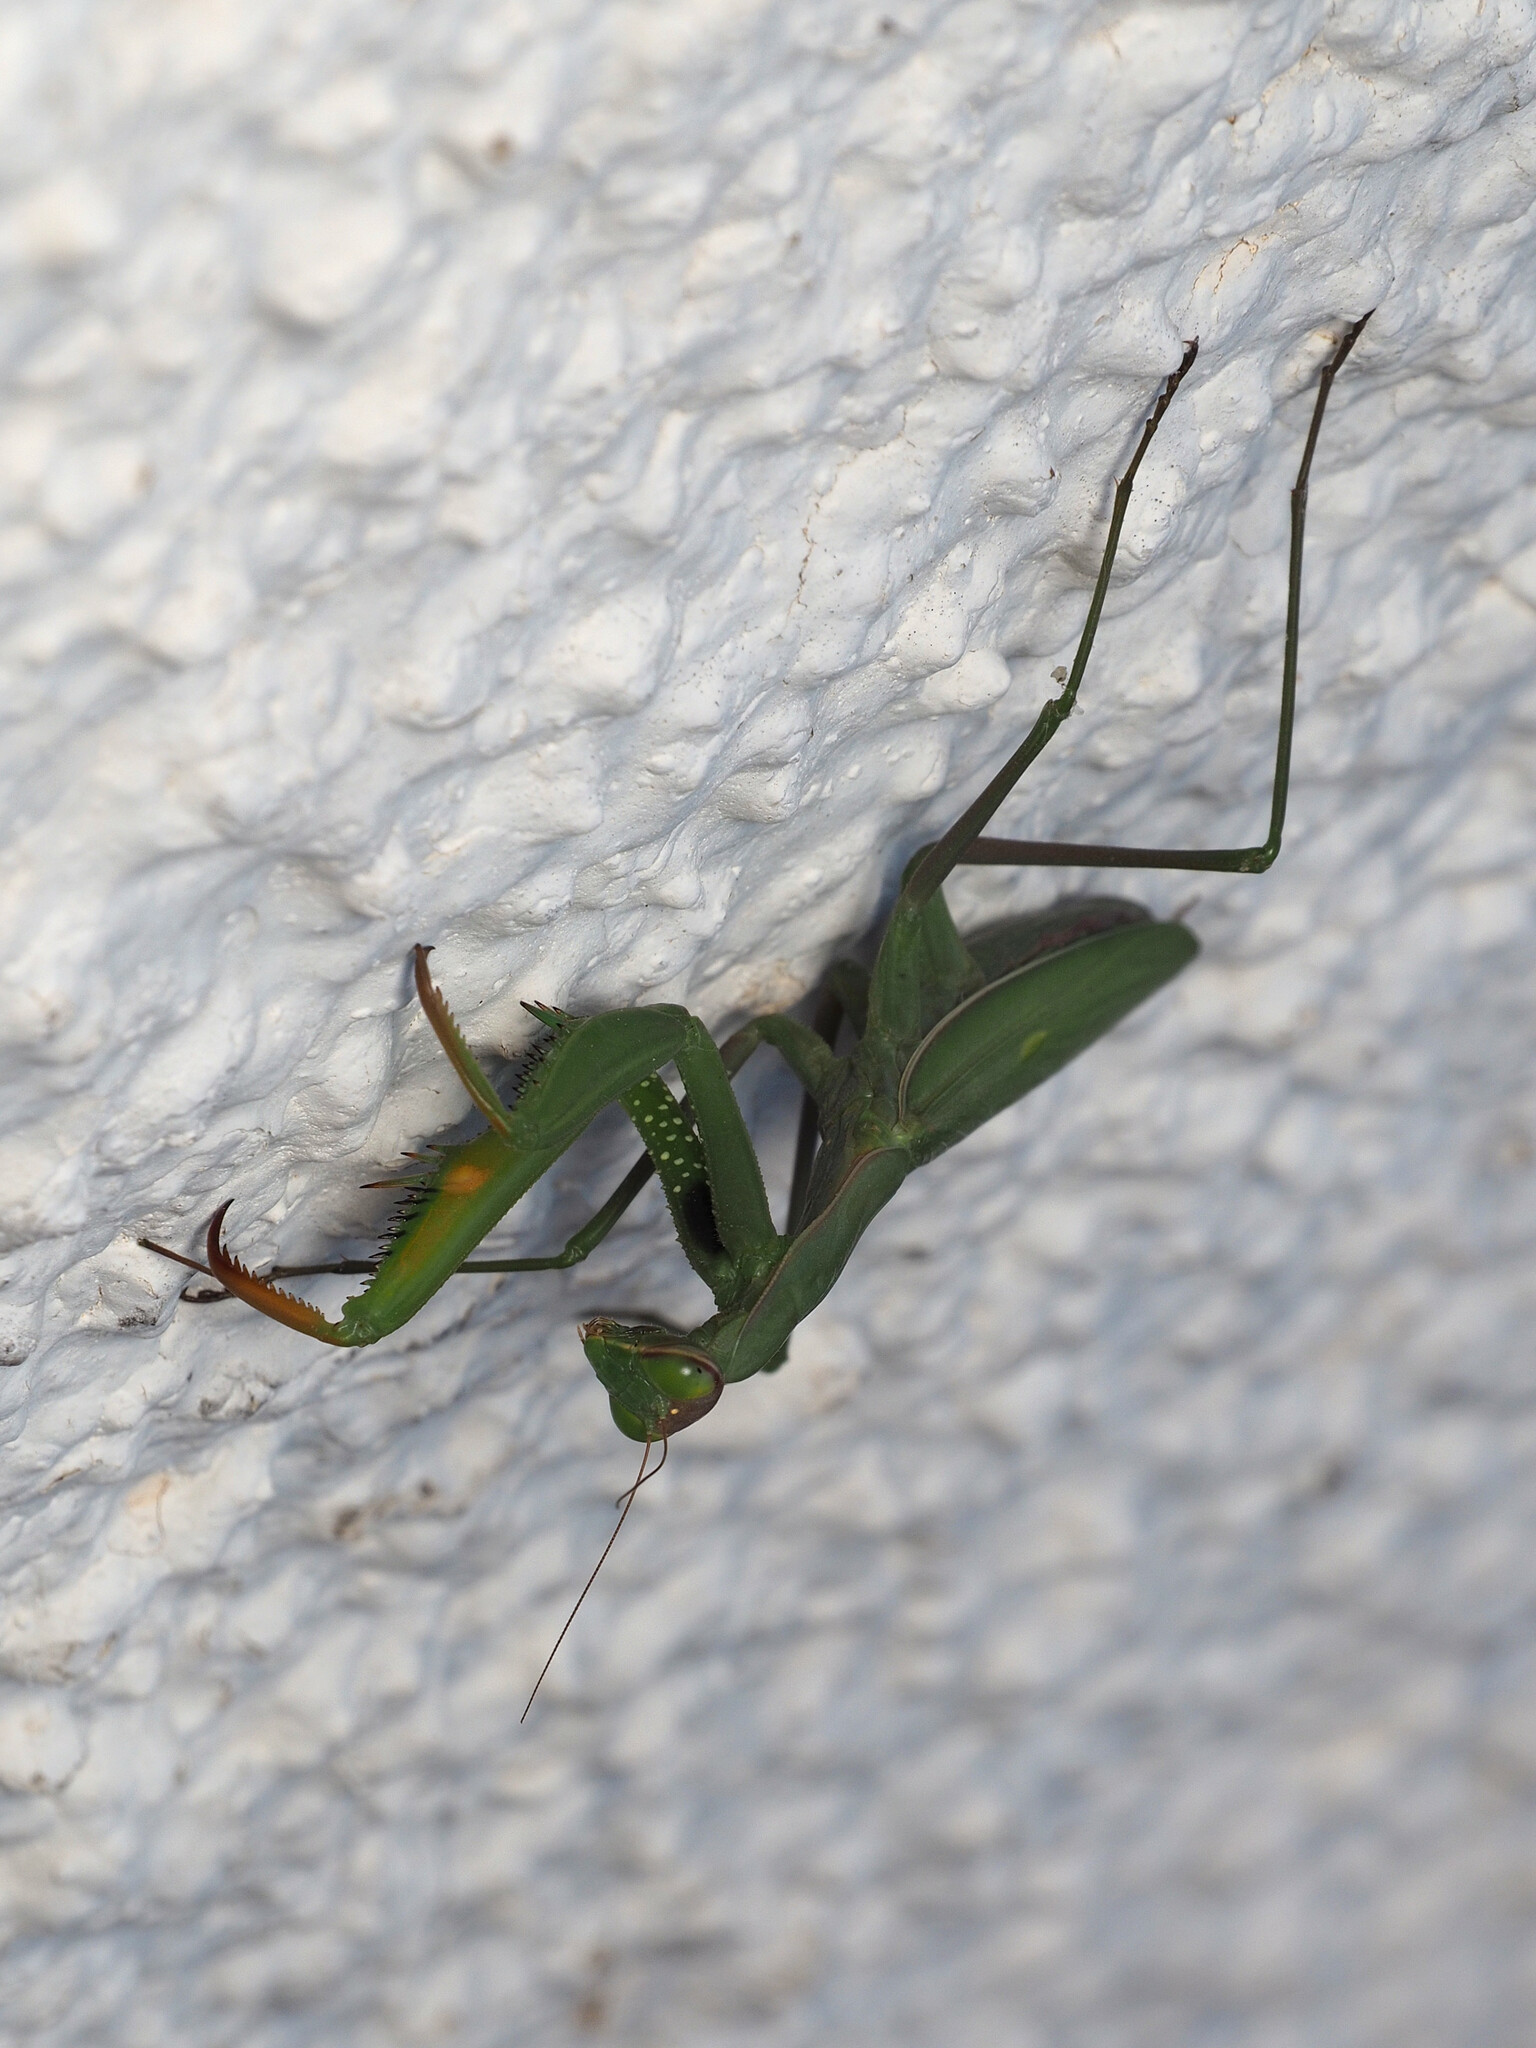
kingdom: Animalia
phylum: Arthropoda
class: Insecta
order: Mantodea
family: Mantidae
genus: Mantis
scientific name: Mantis religiosa
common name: Praying mantis
